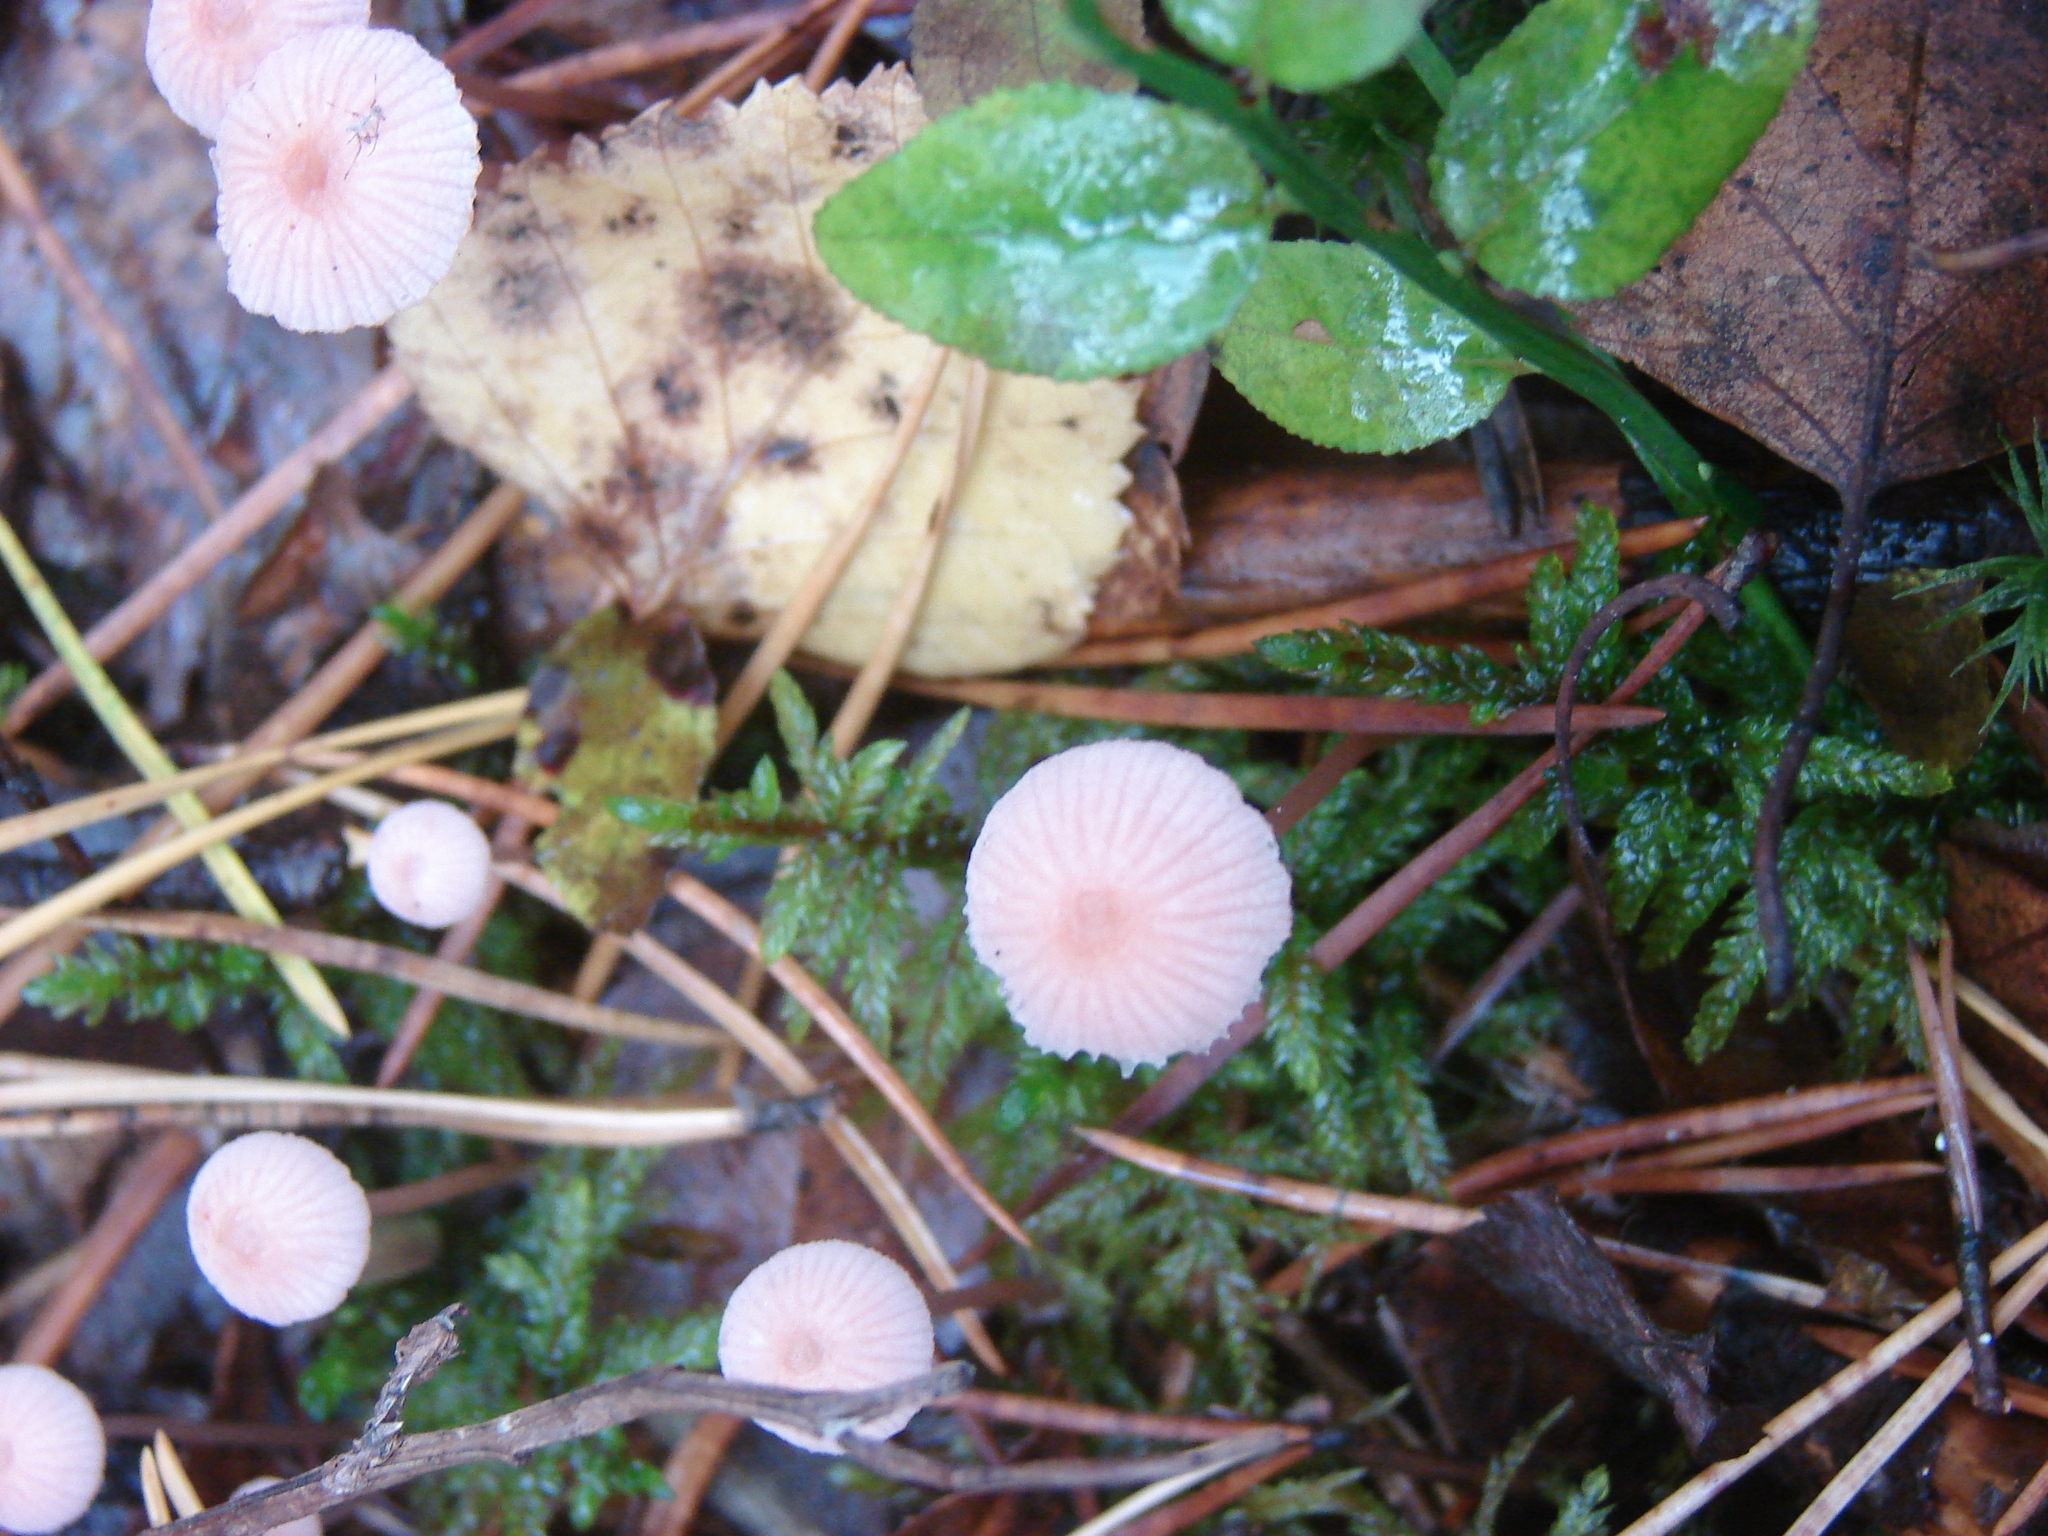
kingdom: Fungi
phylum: Basidiomycota
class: Agaricomycetes
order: Agaricales
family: Mycenaceae
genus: Mycena
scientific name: Mycena rosella
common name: Pink bonnet
